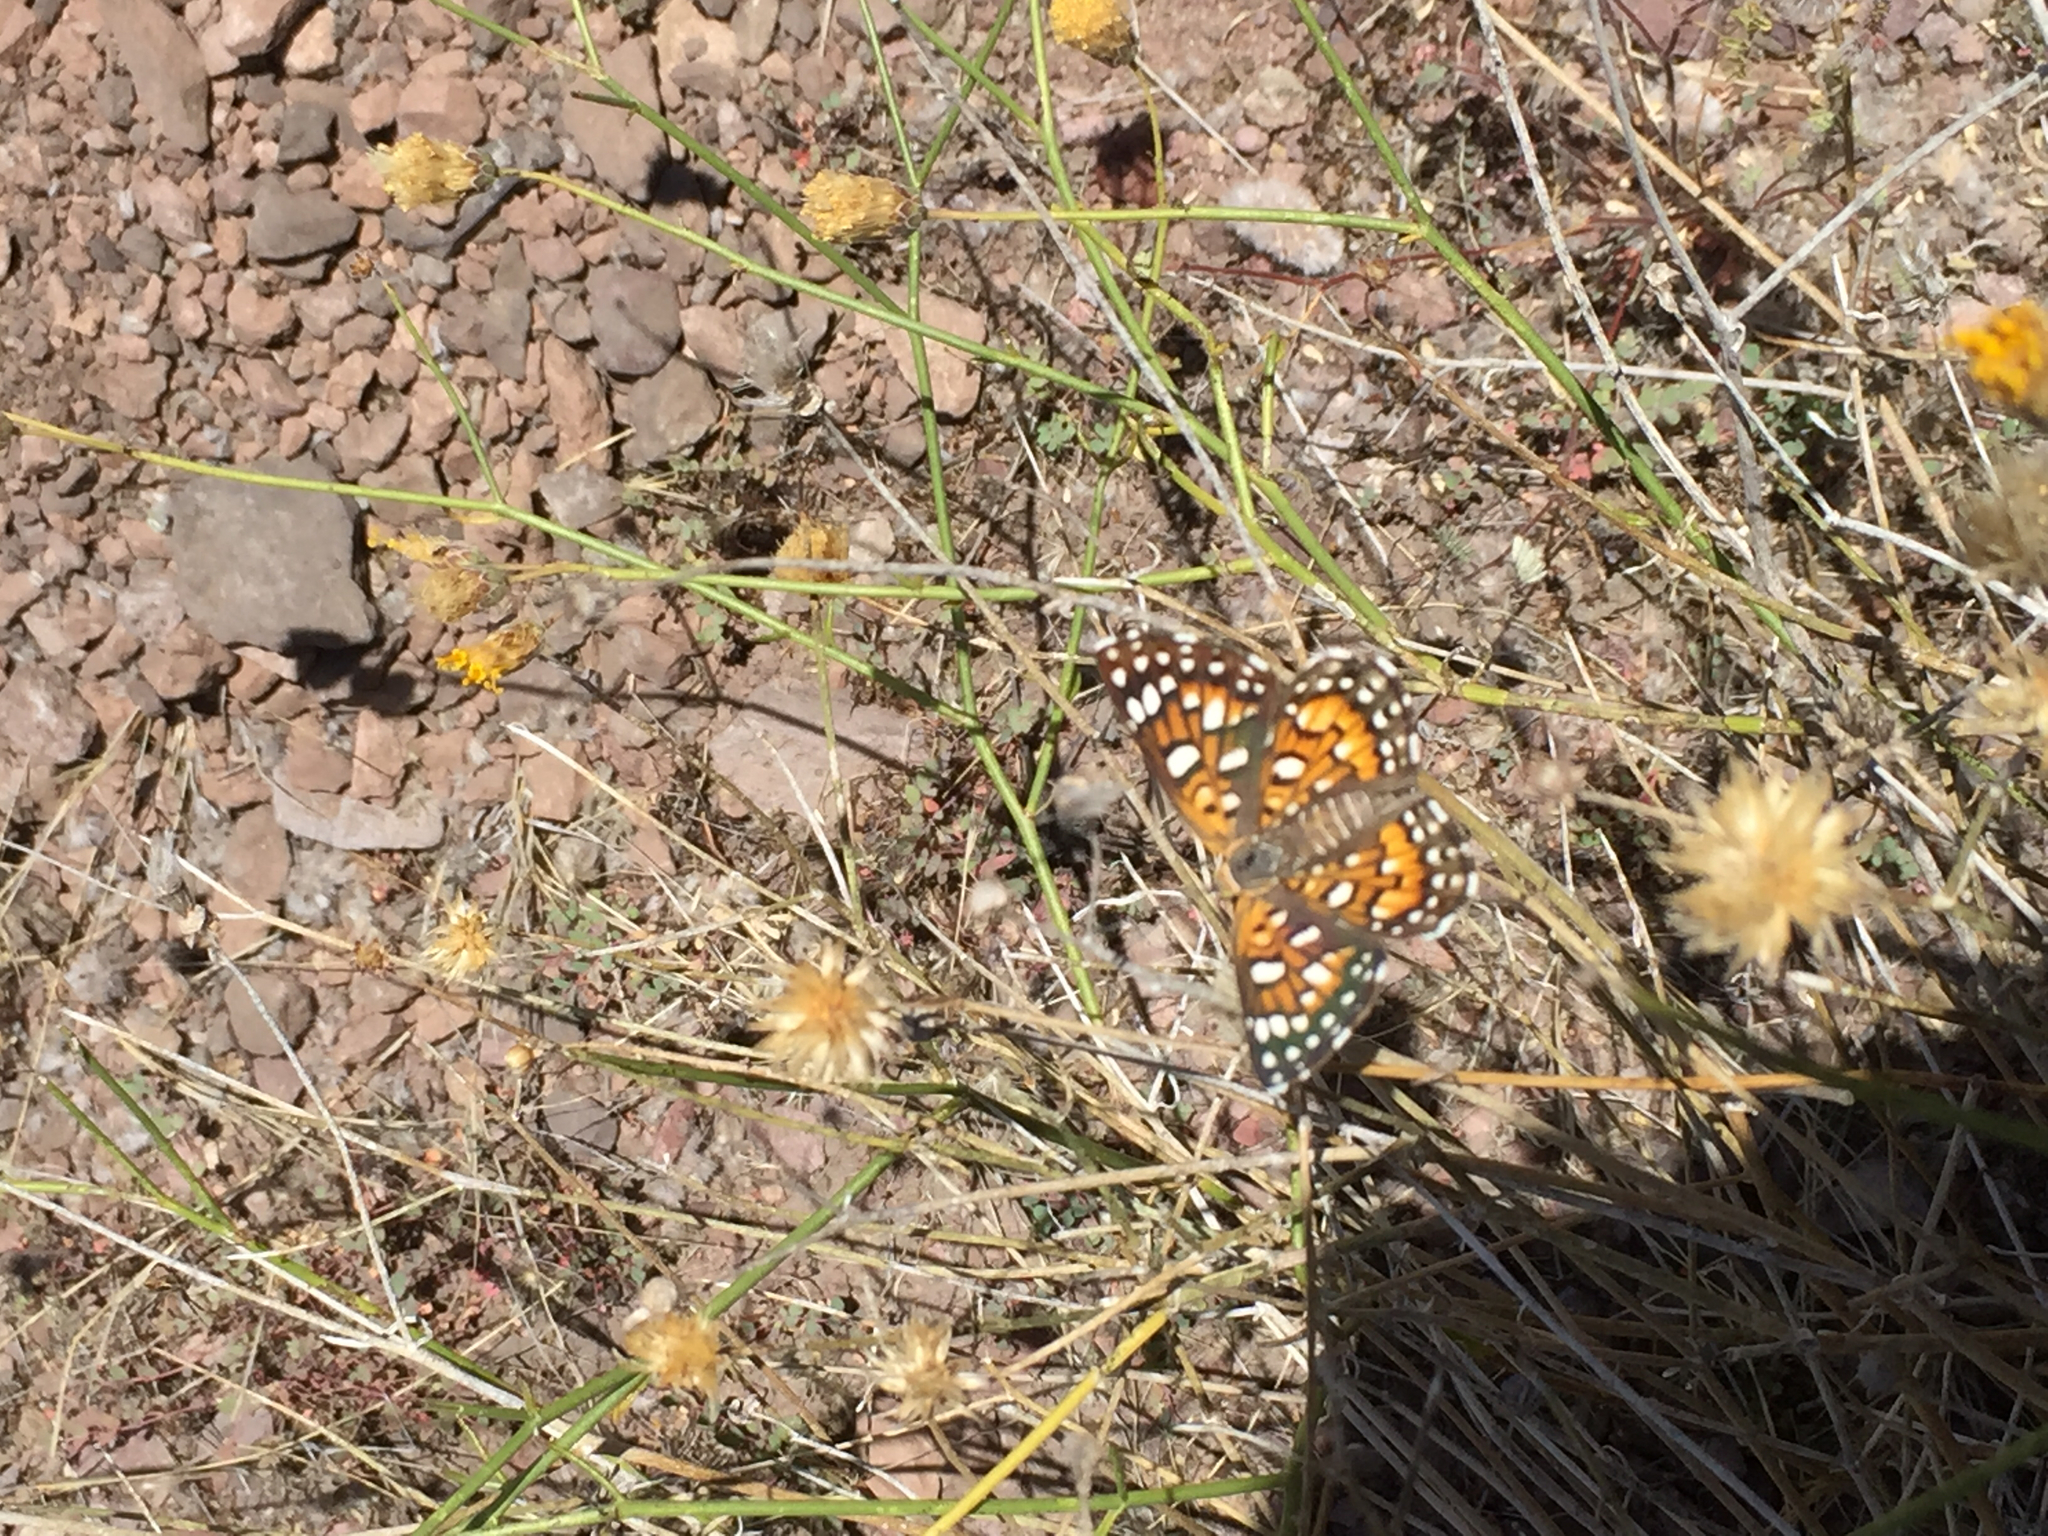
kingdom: Animalia
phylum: Arthropoda
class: Insecta
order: Lepidoptera
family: Riodinidae
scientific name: Riodinidae
